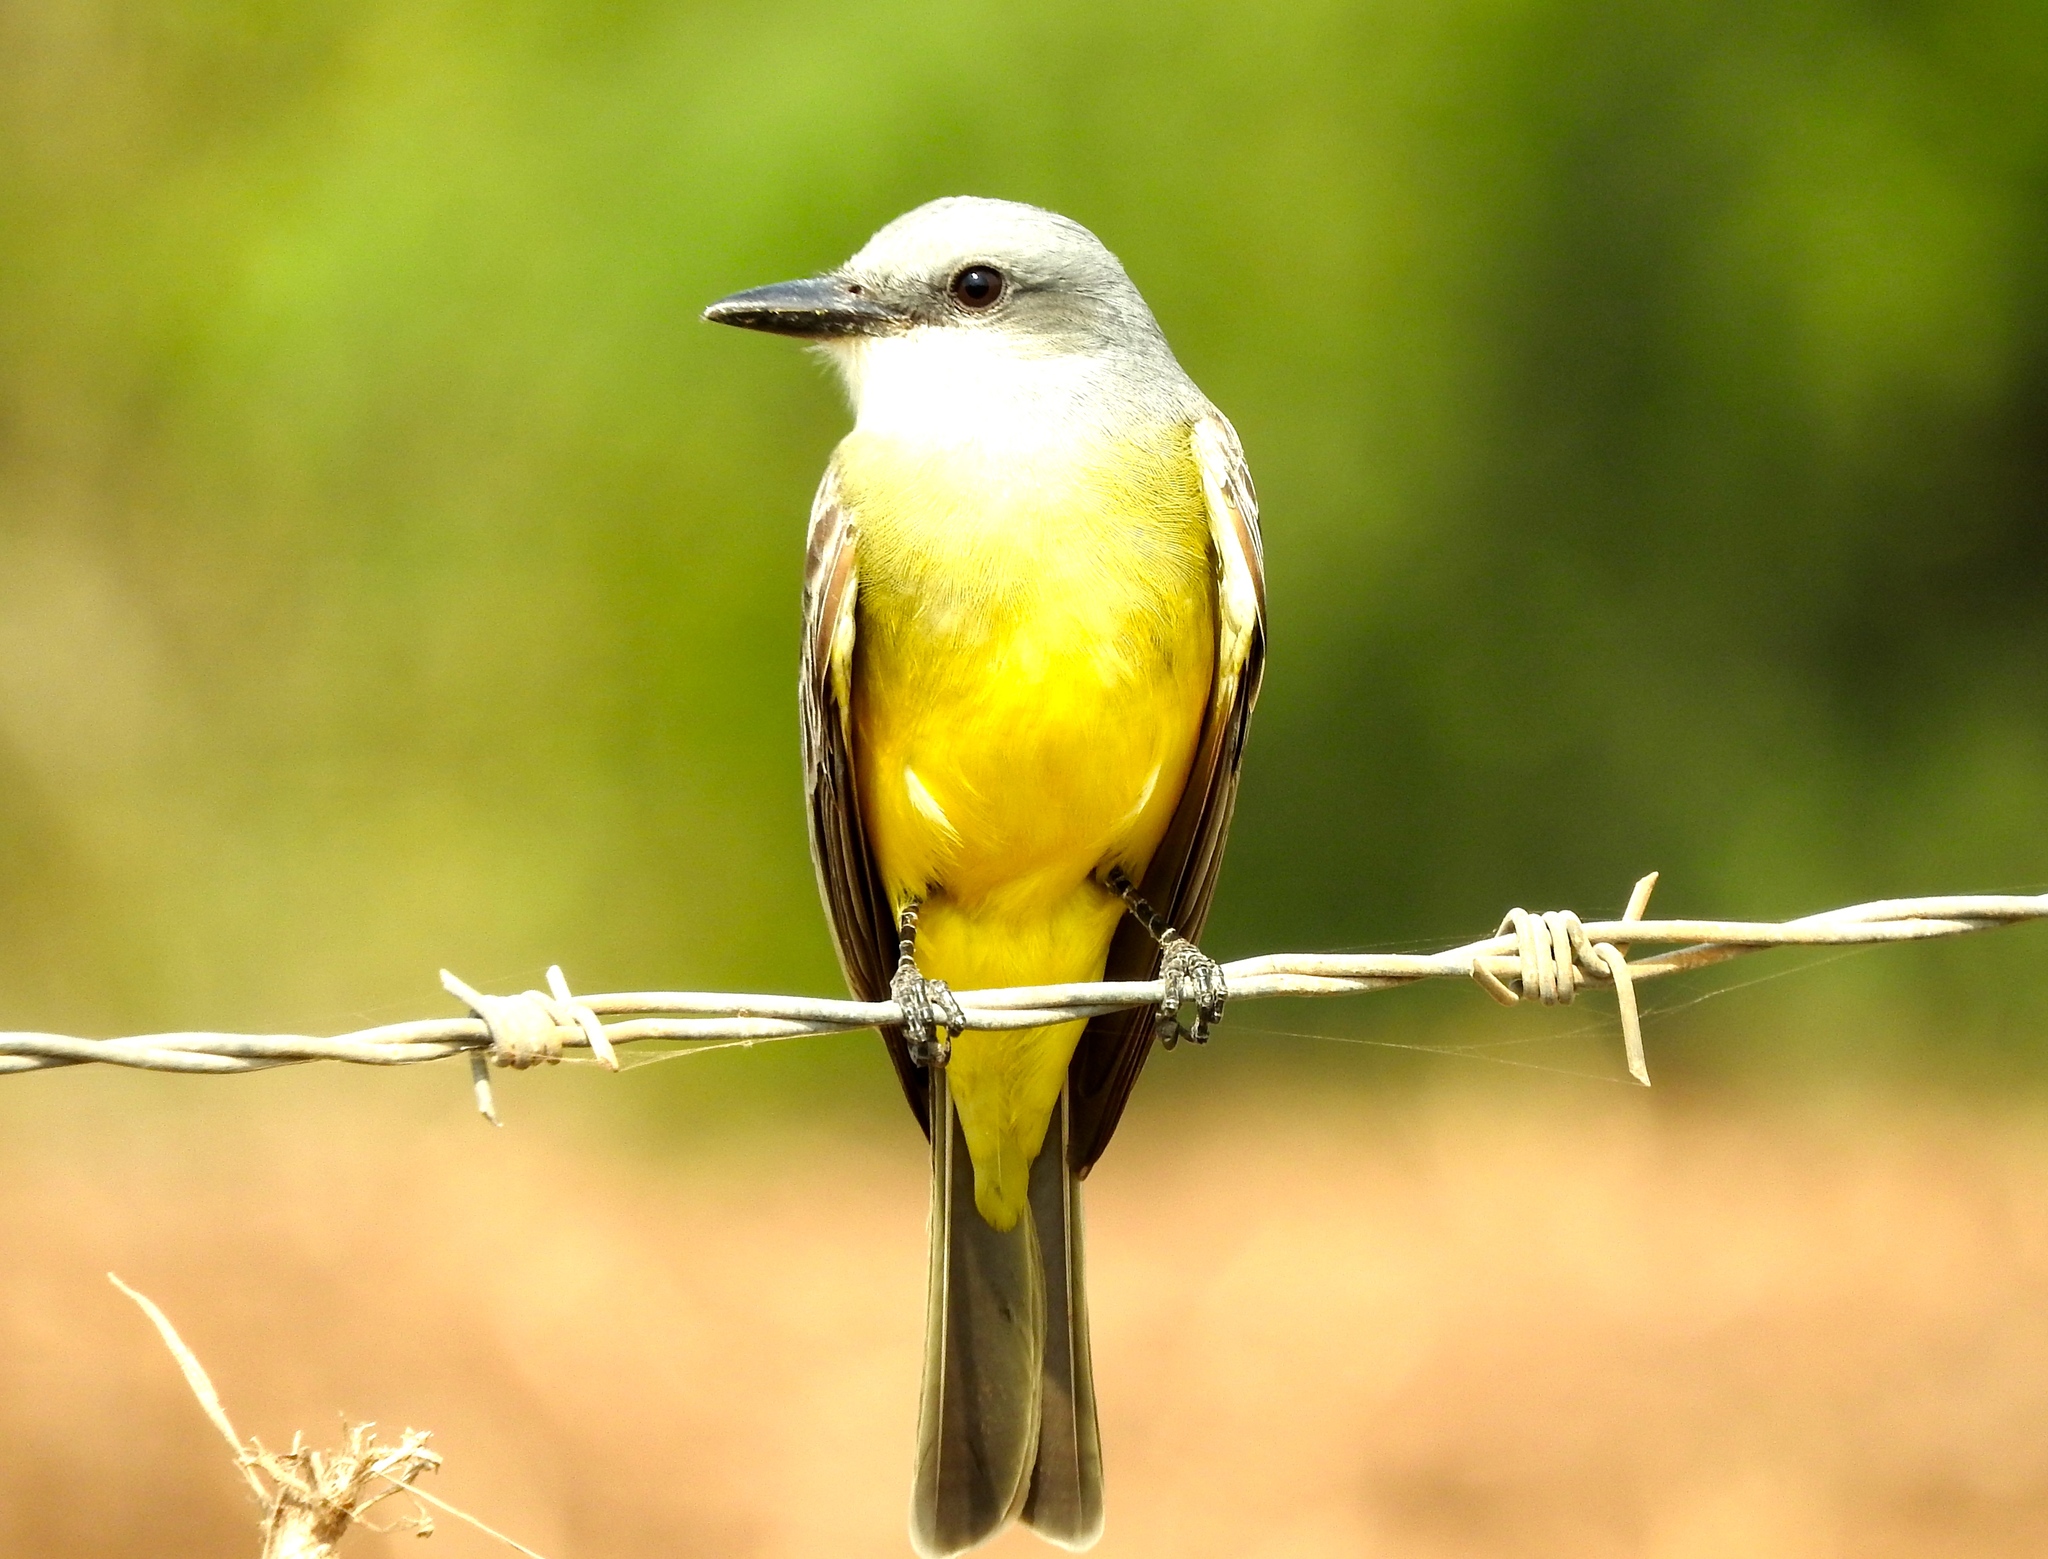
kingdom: Animalia
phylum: Chordata
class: Aves
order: Passeriformes
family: Tyrannidae
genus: Tyrannus
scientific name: Tyrannus melancholicus
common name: Tropical kingbird
